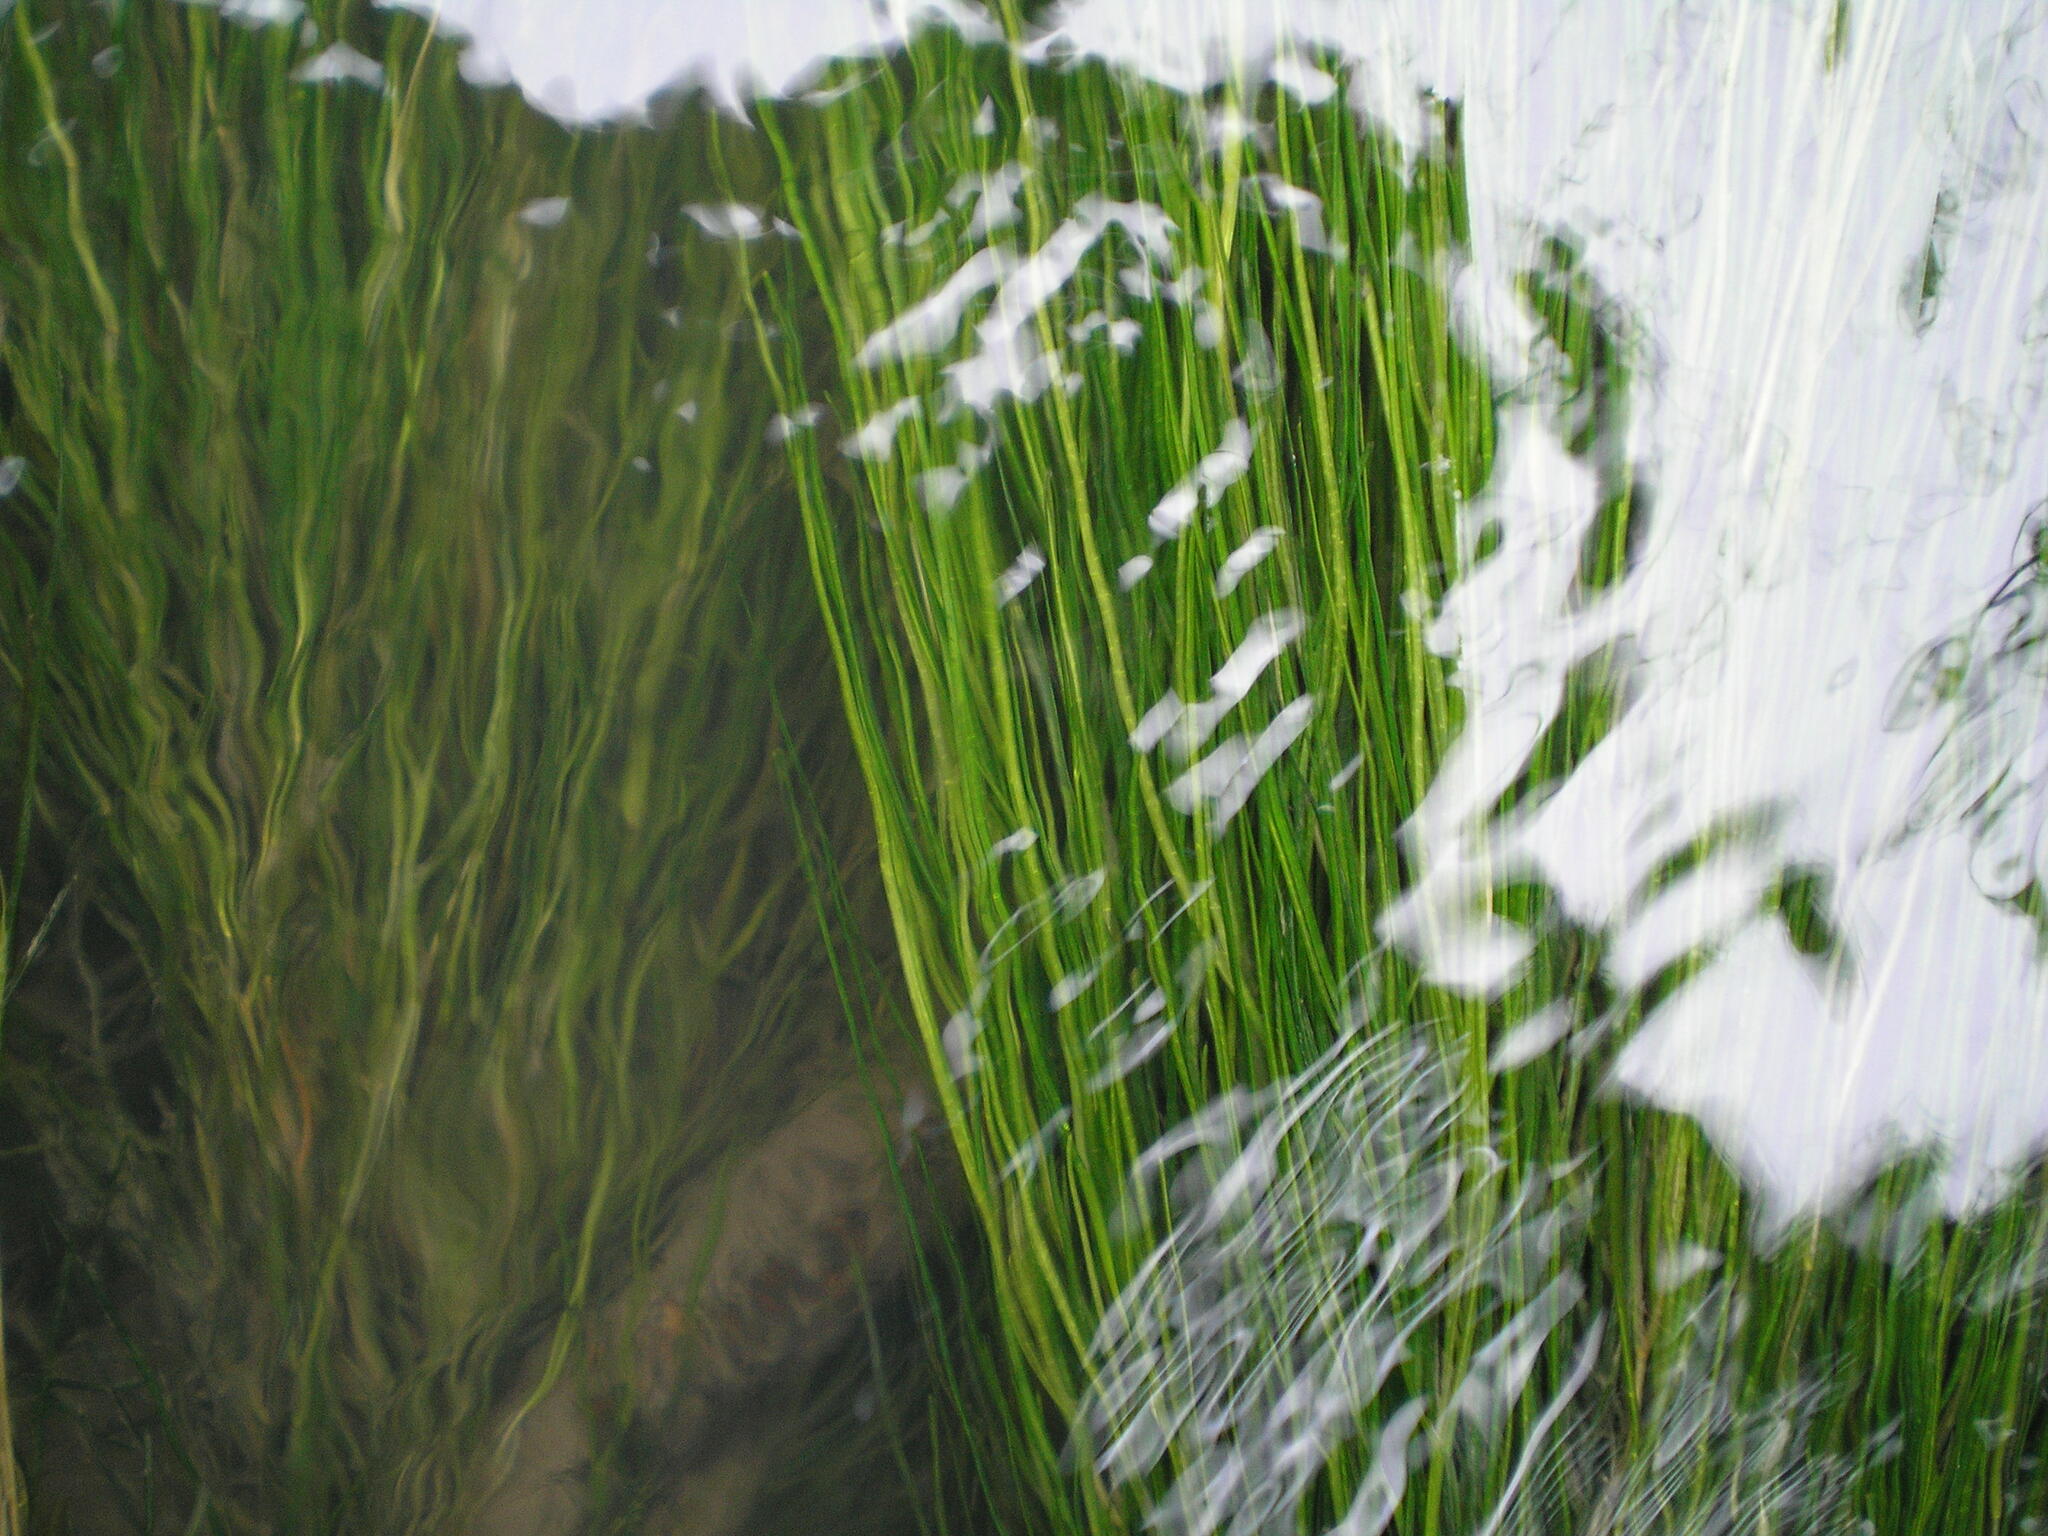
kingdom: Plantae
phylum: Tracheophyta
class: Liliopsida
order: Alismatales
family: Potamogetonaceae
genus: Stuckenia
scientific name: Stuckenia pectinata
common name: Sago pondweed
